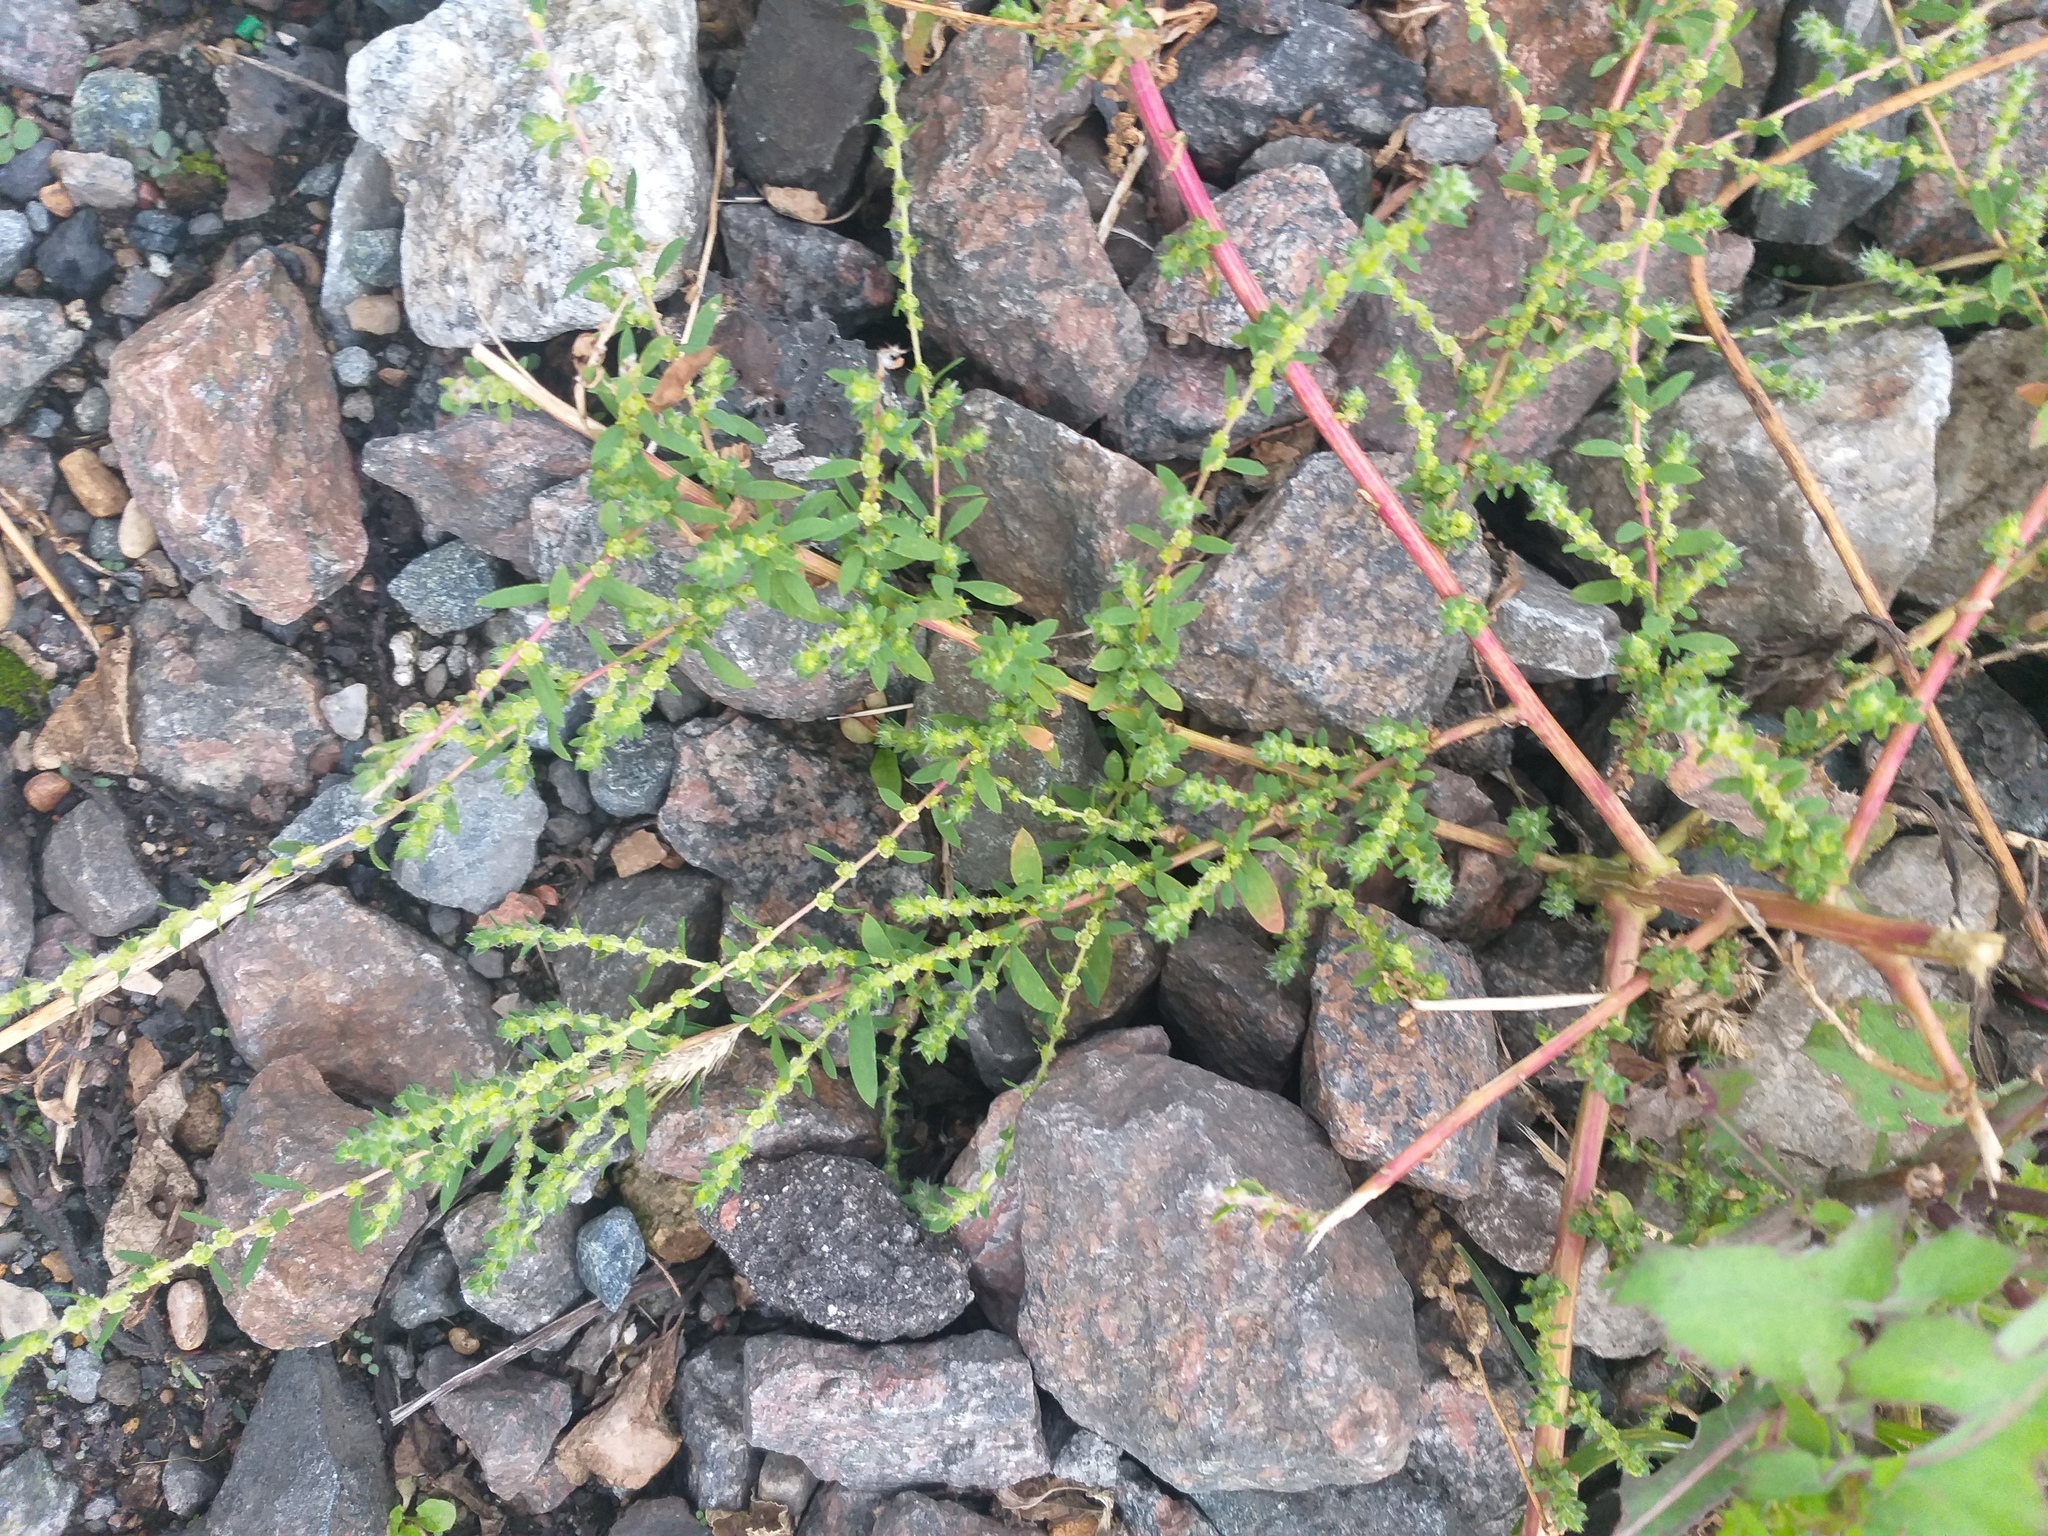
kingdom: Plantae
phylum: Tracheophyta
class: Magnoliopsida
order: Caryophyllales
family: Amaranthaceae
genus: Bassia
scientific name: Bassia scoparia
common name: Belvedere
